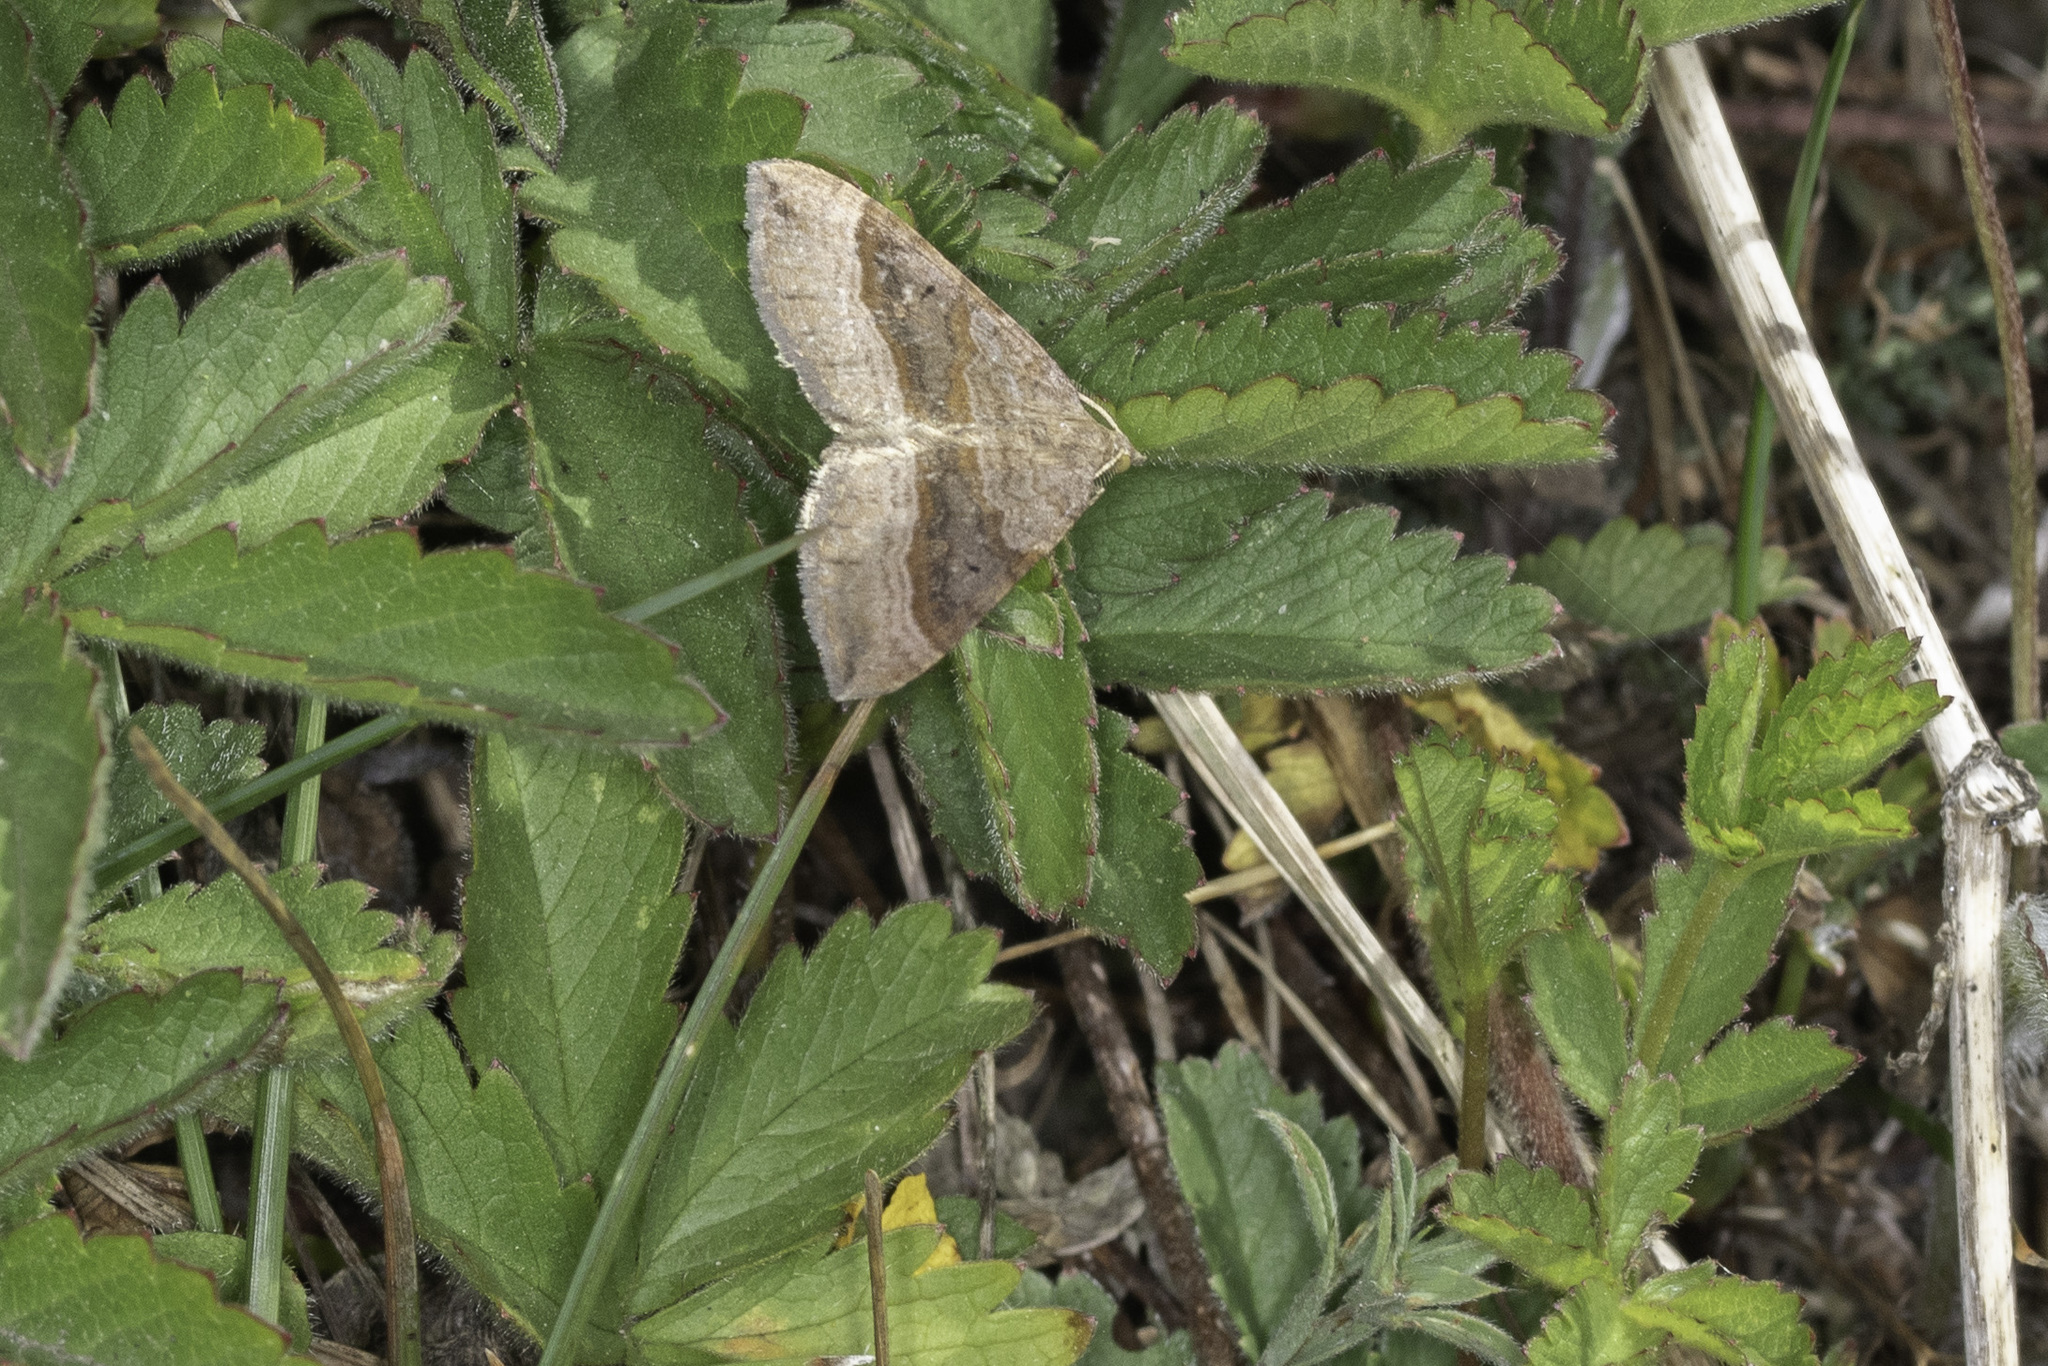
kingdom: Animalia
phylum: Arthropoda
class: Insecta
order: Lepidoptera
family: Geometridae
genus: Scotopteryx
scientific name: Scotopteryx chenopodiata
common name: Shaded broad-bar
